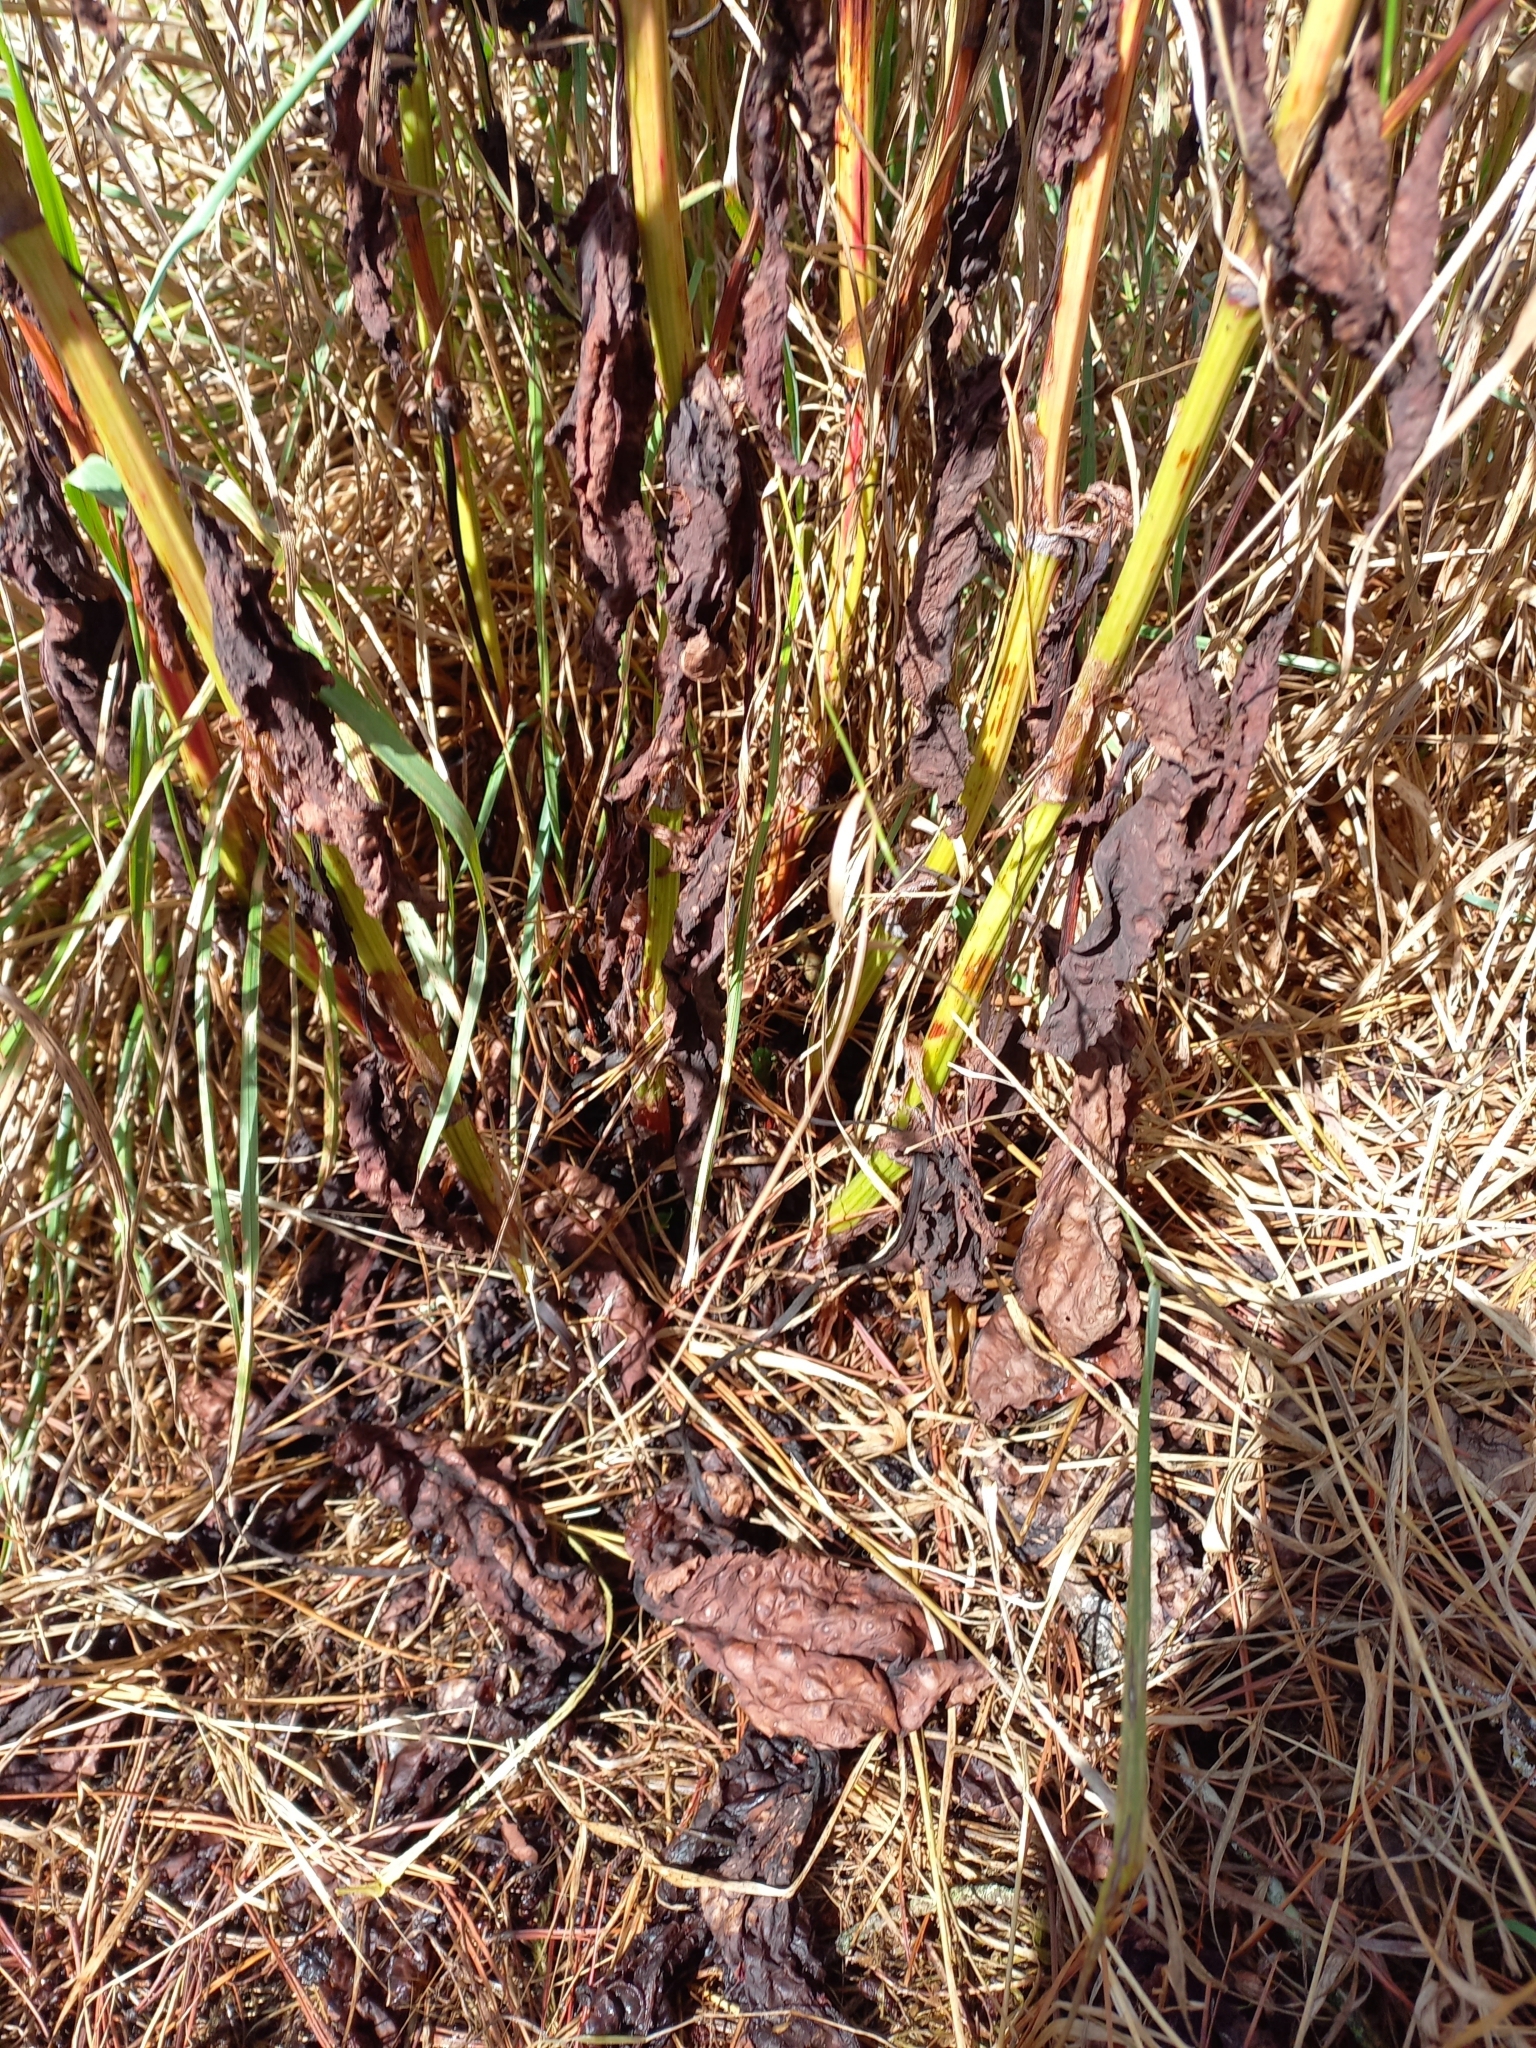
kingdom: Plantae
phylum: Tracheophyta
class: Magnoliopsida
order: Caryophyllales
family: Polygonaceae
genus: Rumex
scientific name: Rumex obtusifolius
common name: Bitter dock
